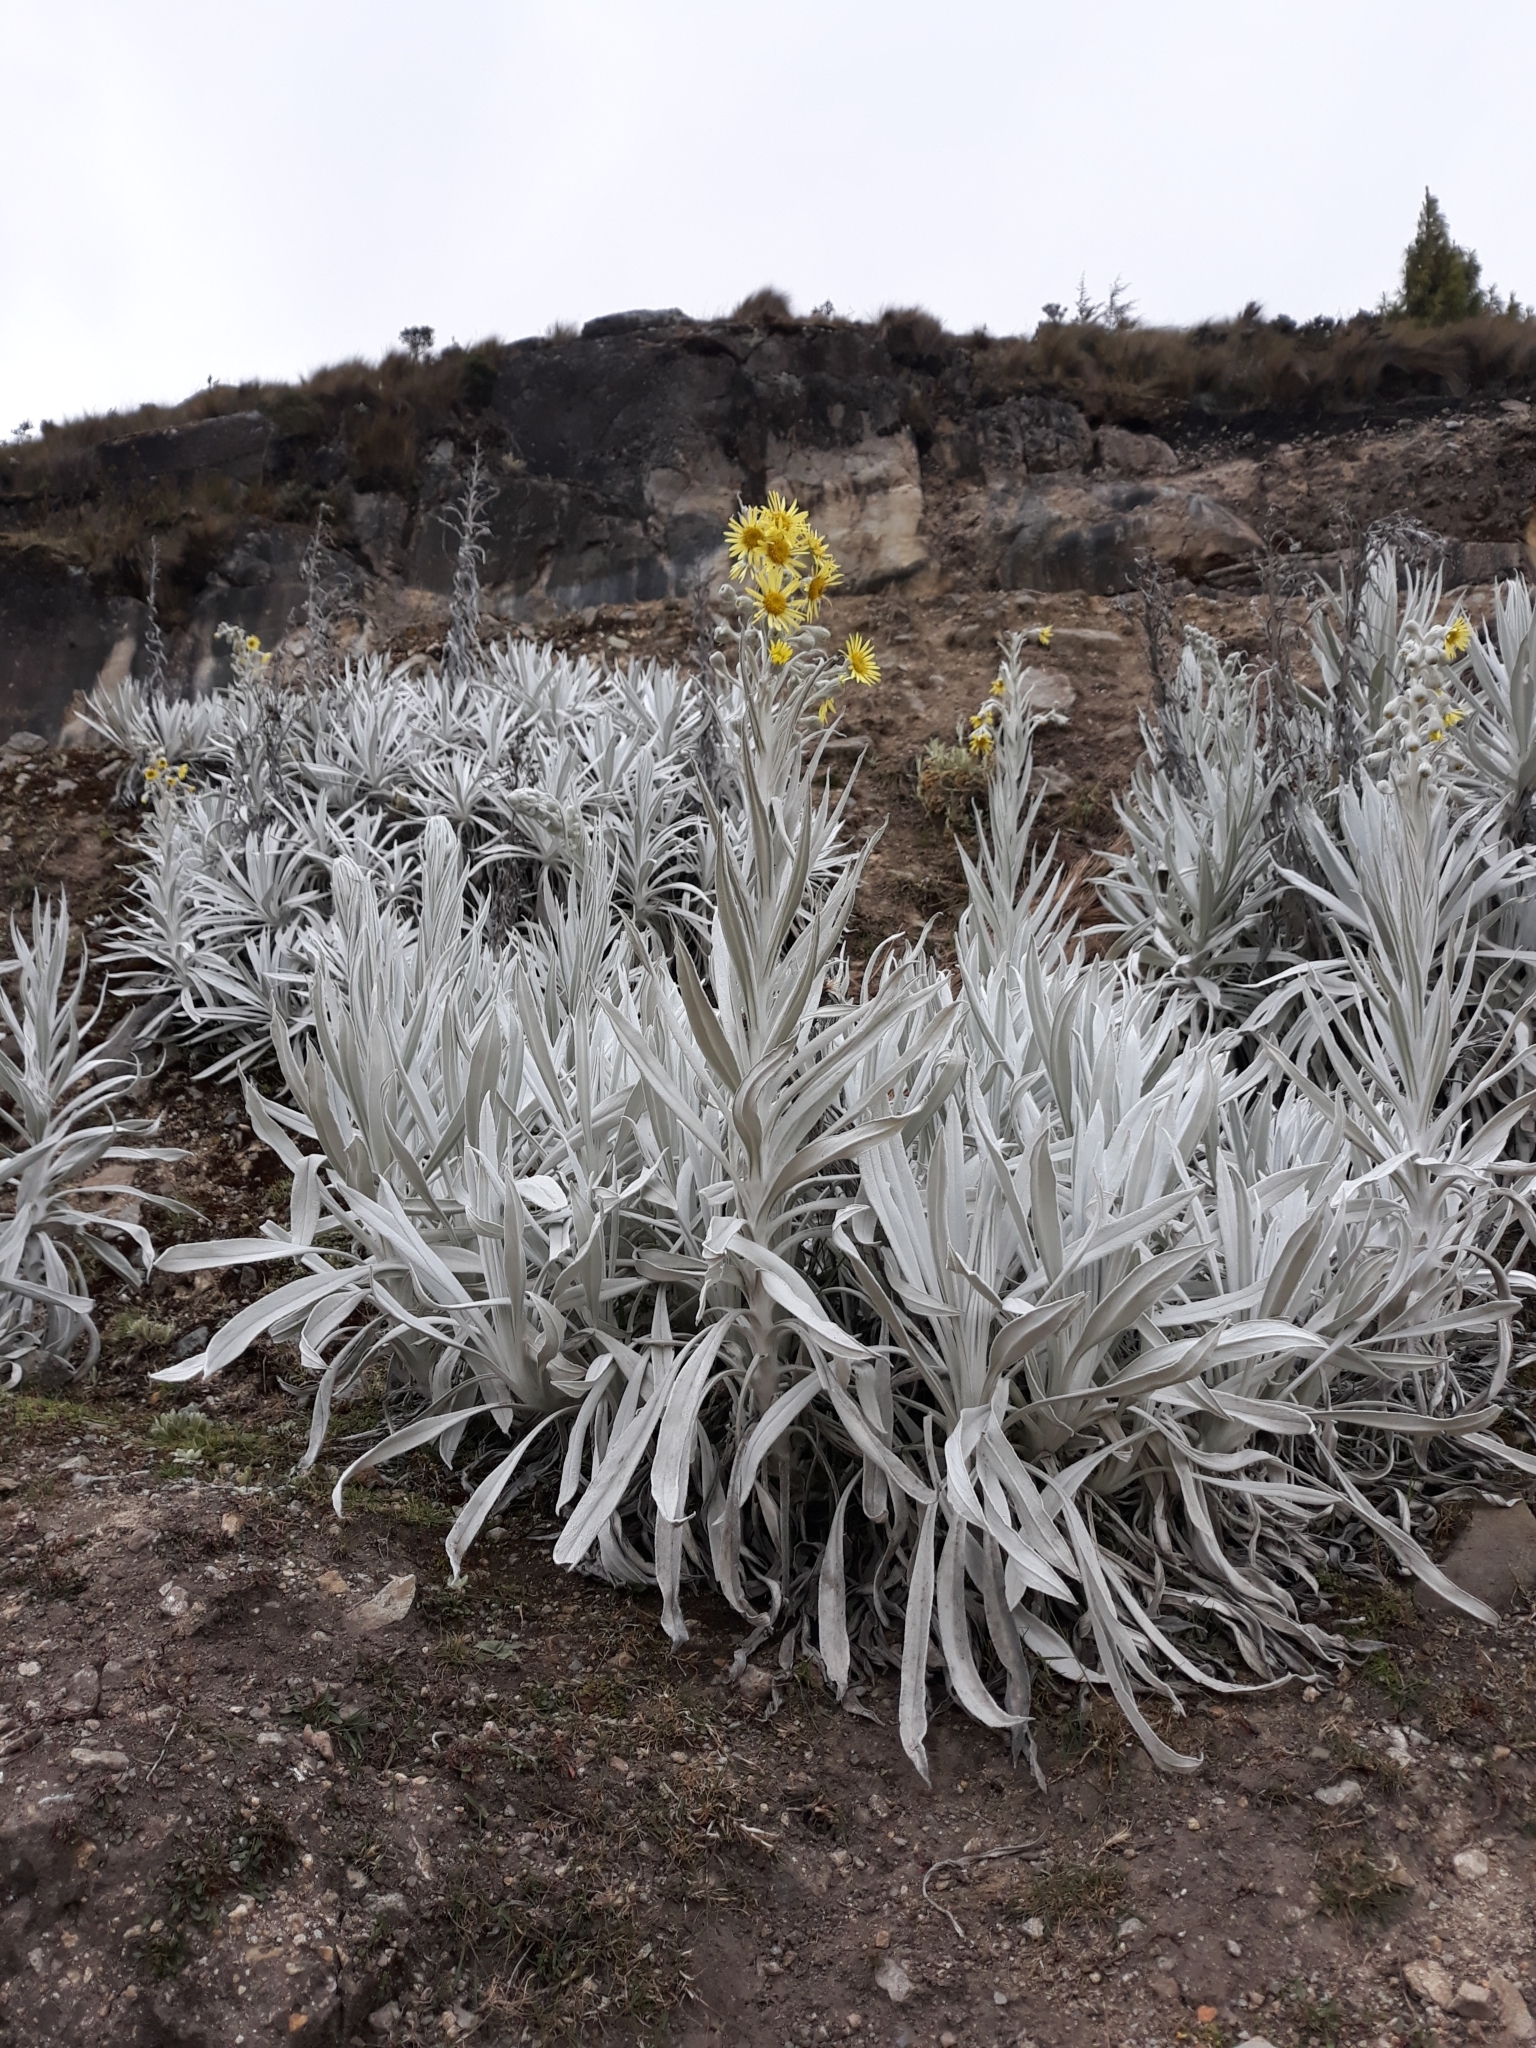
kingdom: Plantae
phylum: Tracheophyta
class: Magnoliopsida
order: Asterales
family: Asteraceae
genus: Senecio
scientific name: Senecio niveoaureus
